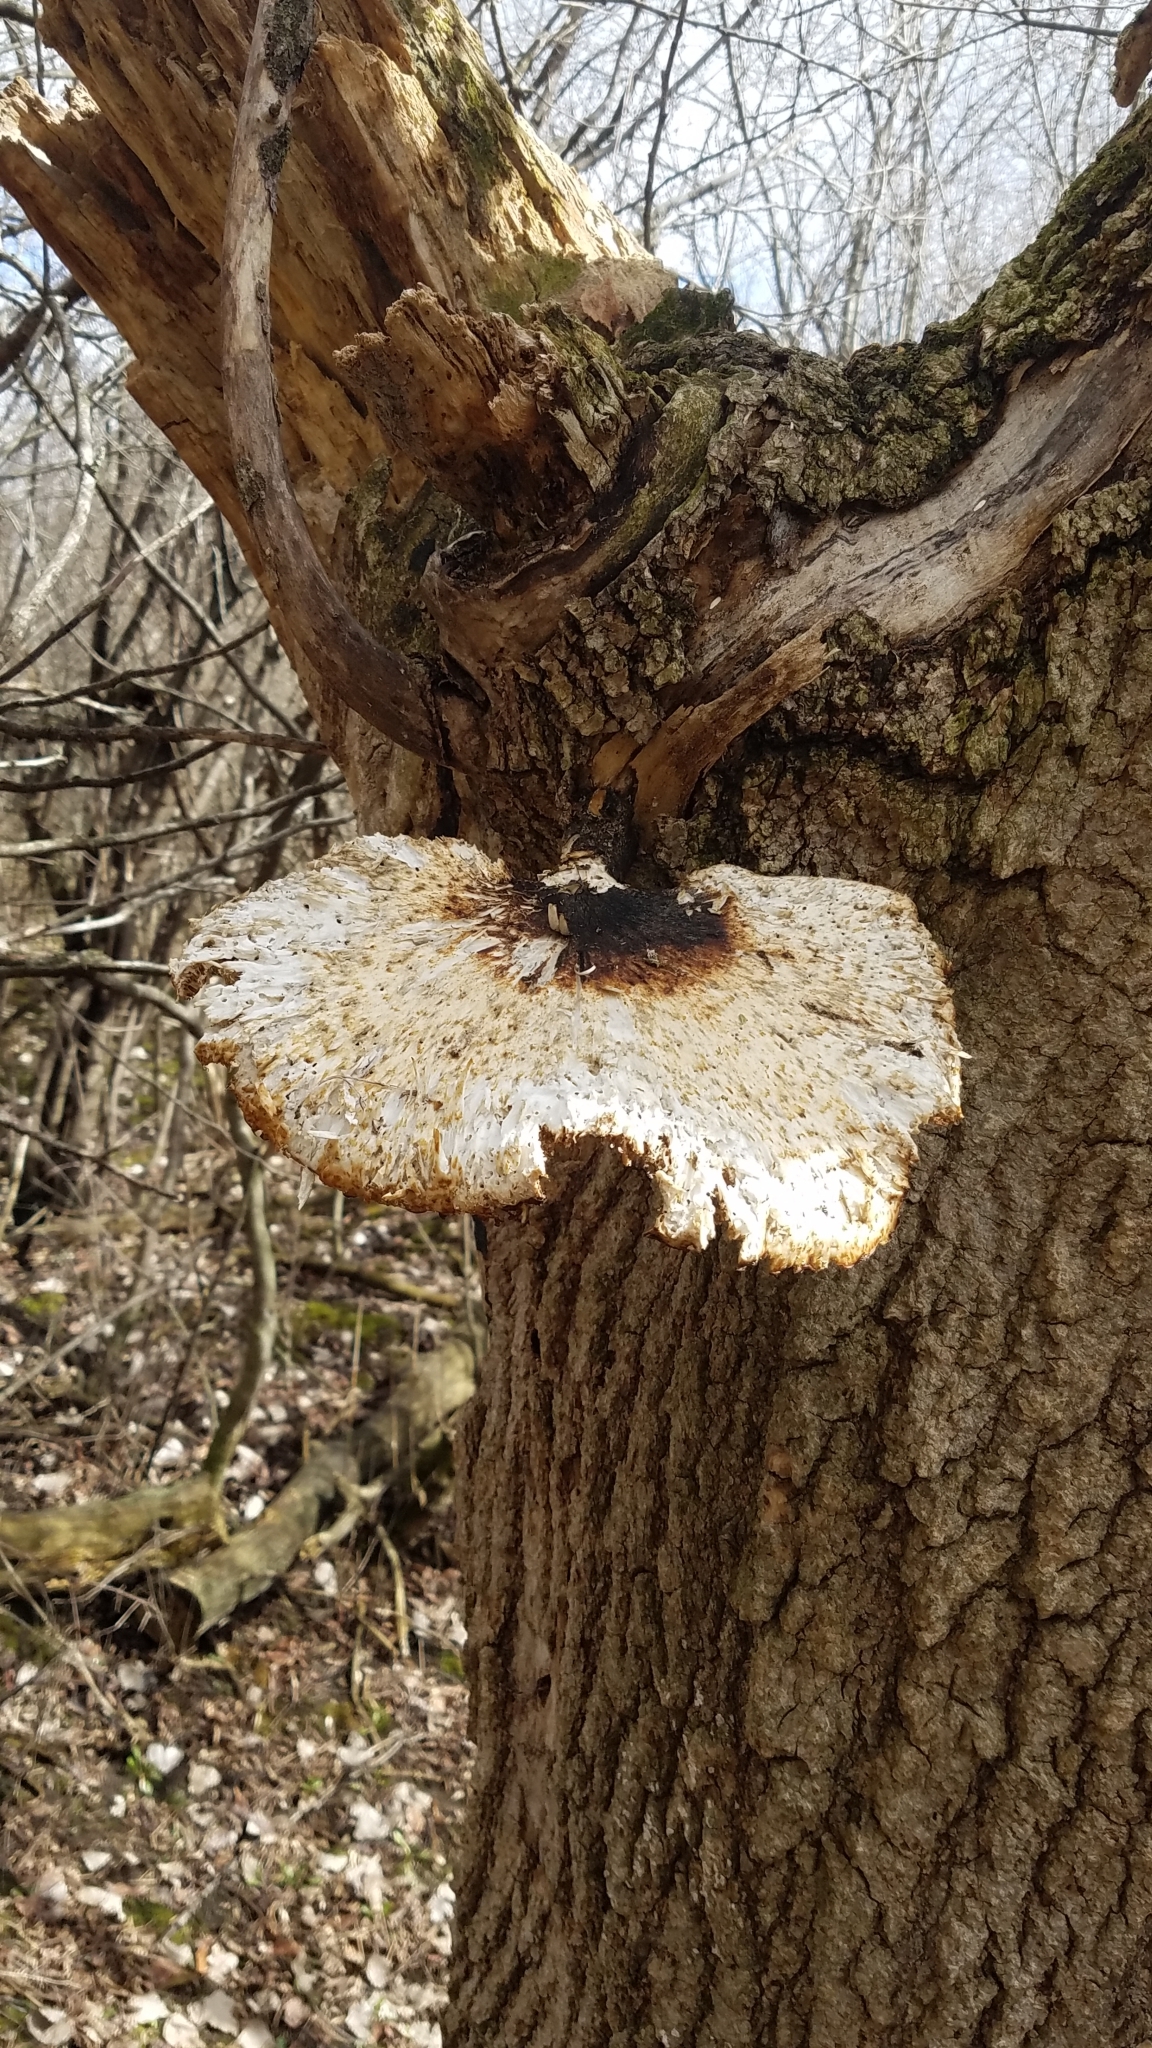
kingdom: Fungi
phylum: Basidiomycota
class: Agaricomycetes
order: Polyporales
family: Polyporaceae
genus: Cerioporus
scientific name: Cerioporus squamosus
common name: Dryad's saddle
